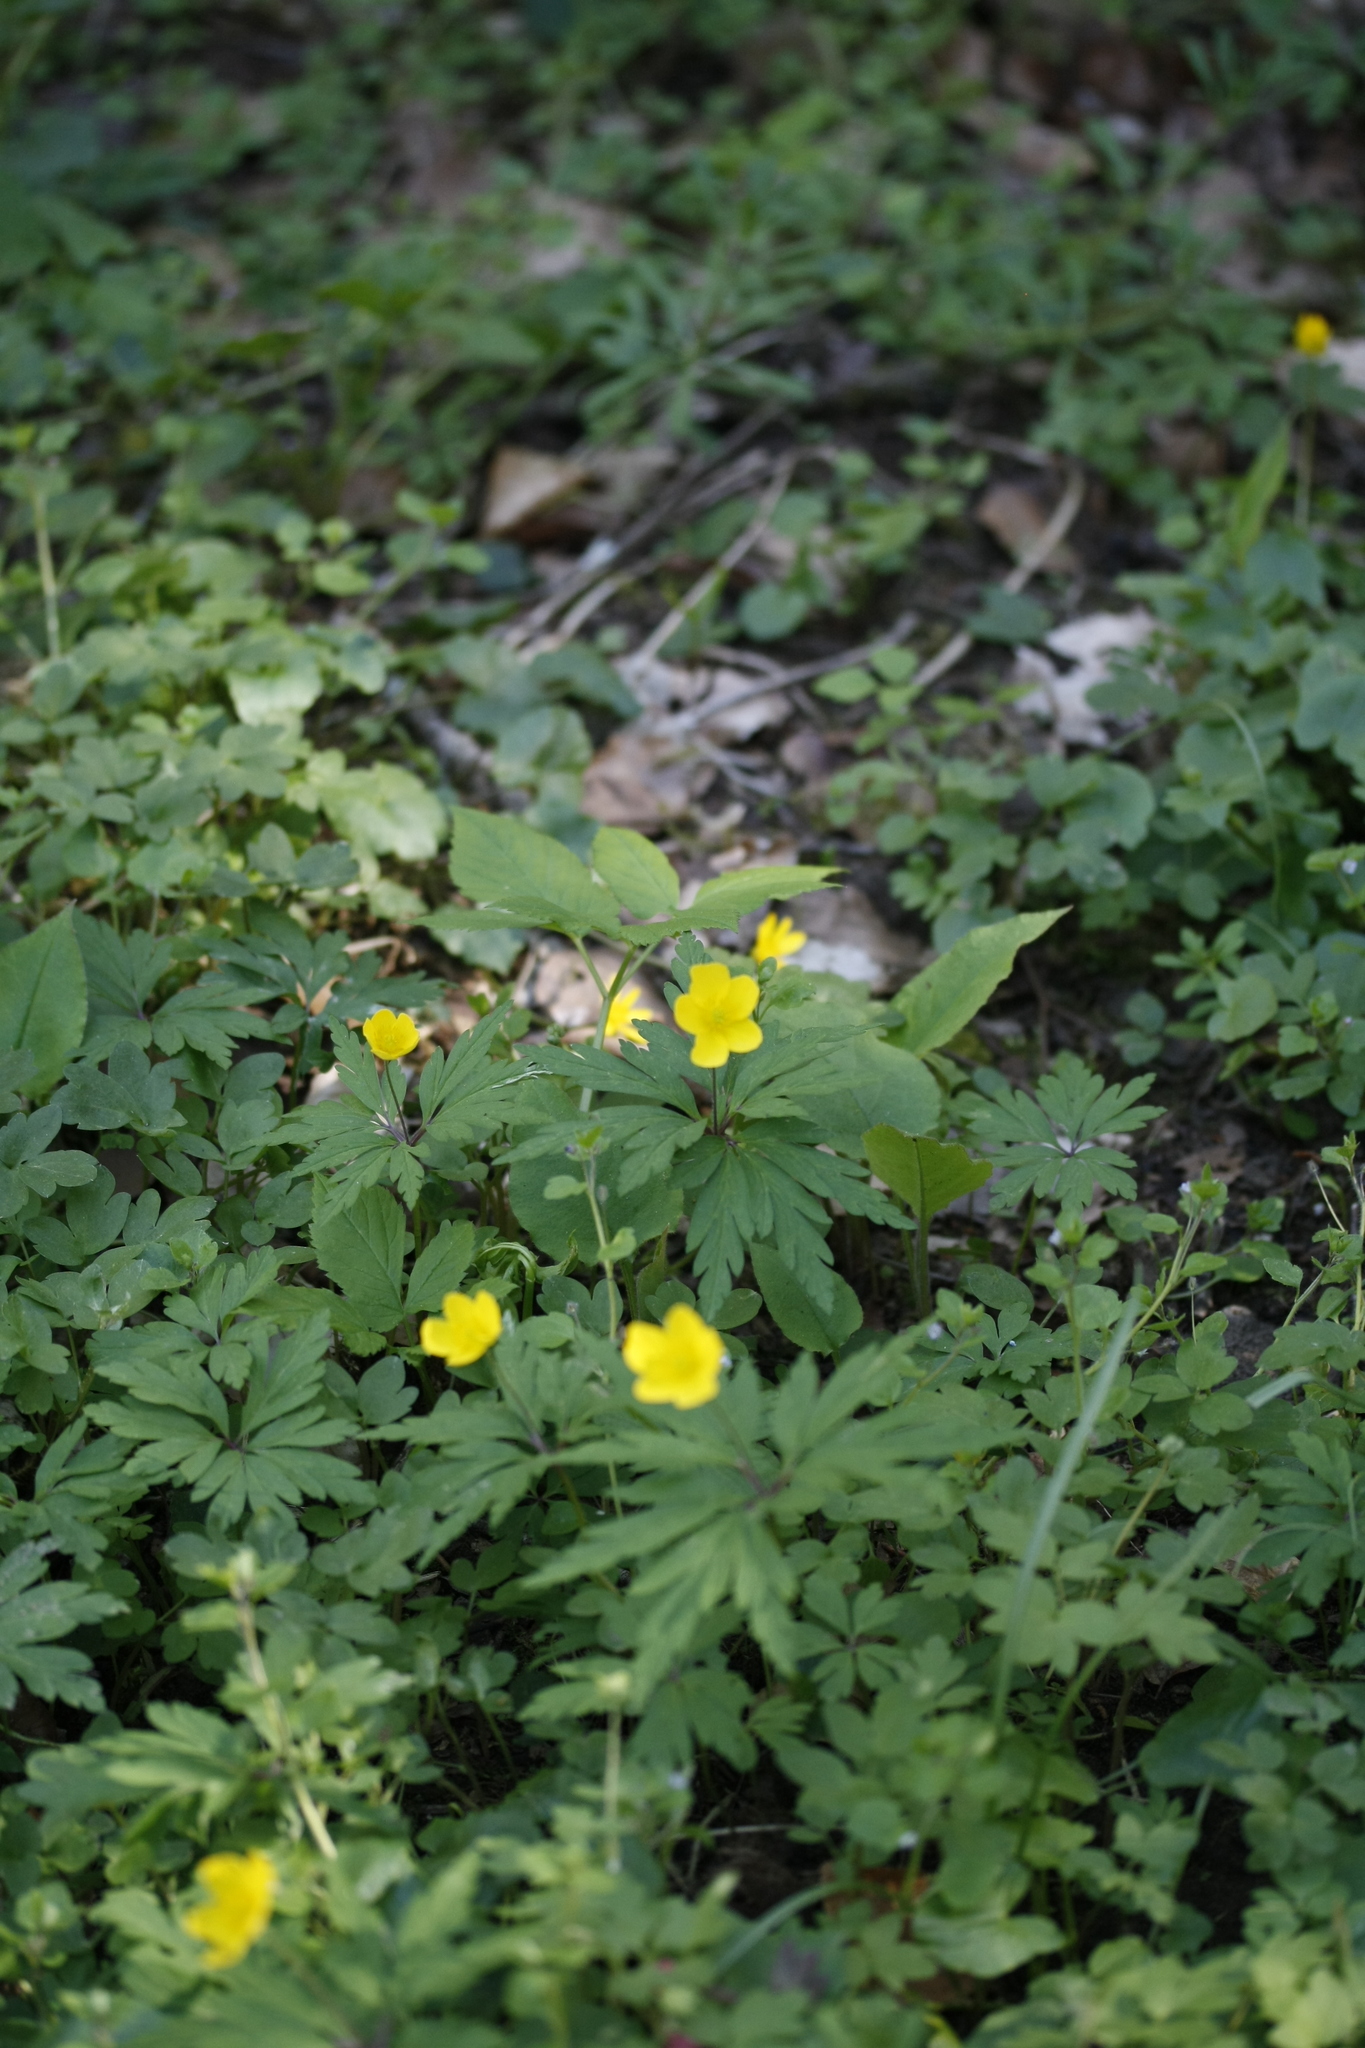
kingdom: Plantae
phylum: Tracheophyta
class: Magnoliopsida
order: Ranunculales
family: Ranunculaceae
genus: Anemone
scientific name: Anemone ranunculoides
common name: Yellow anemone
